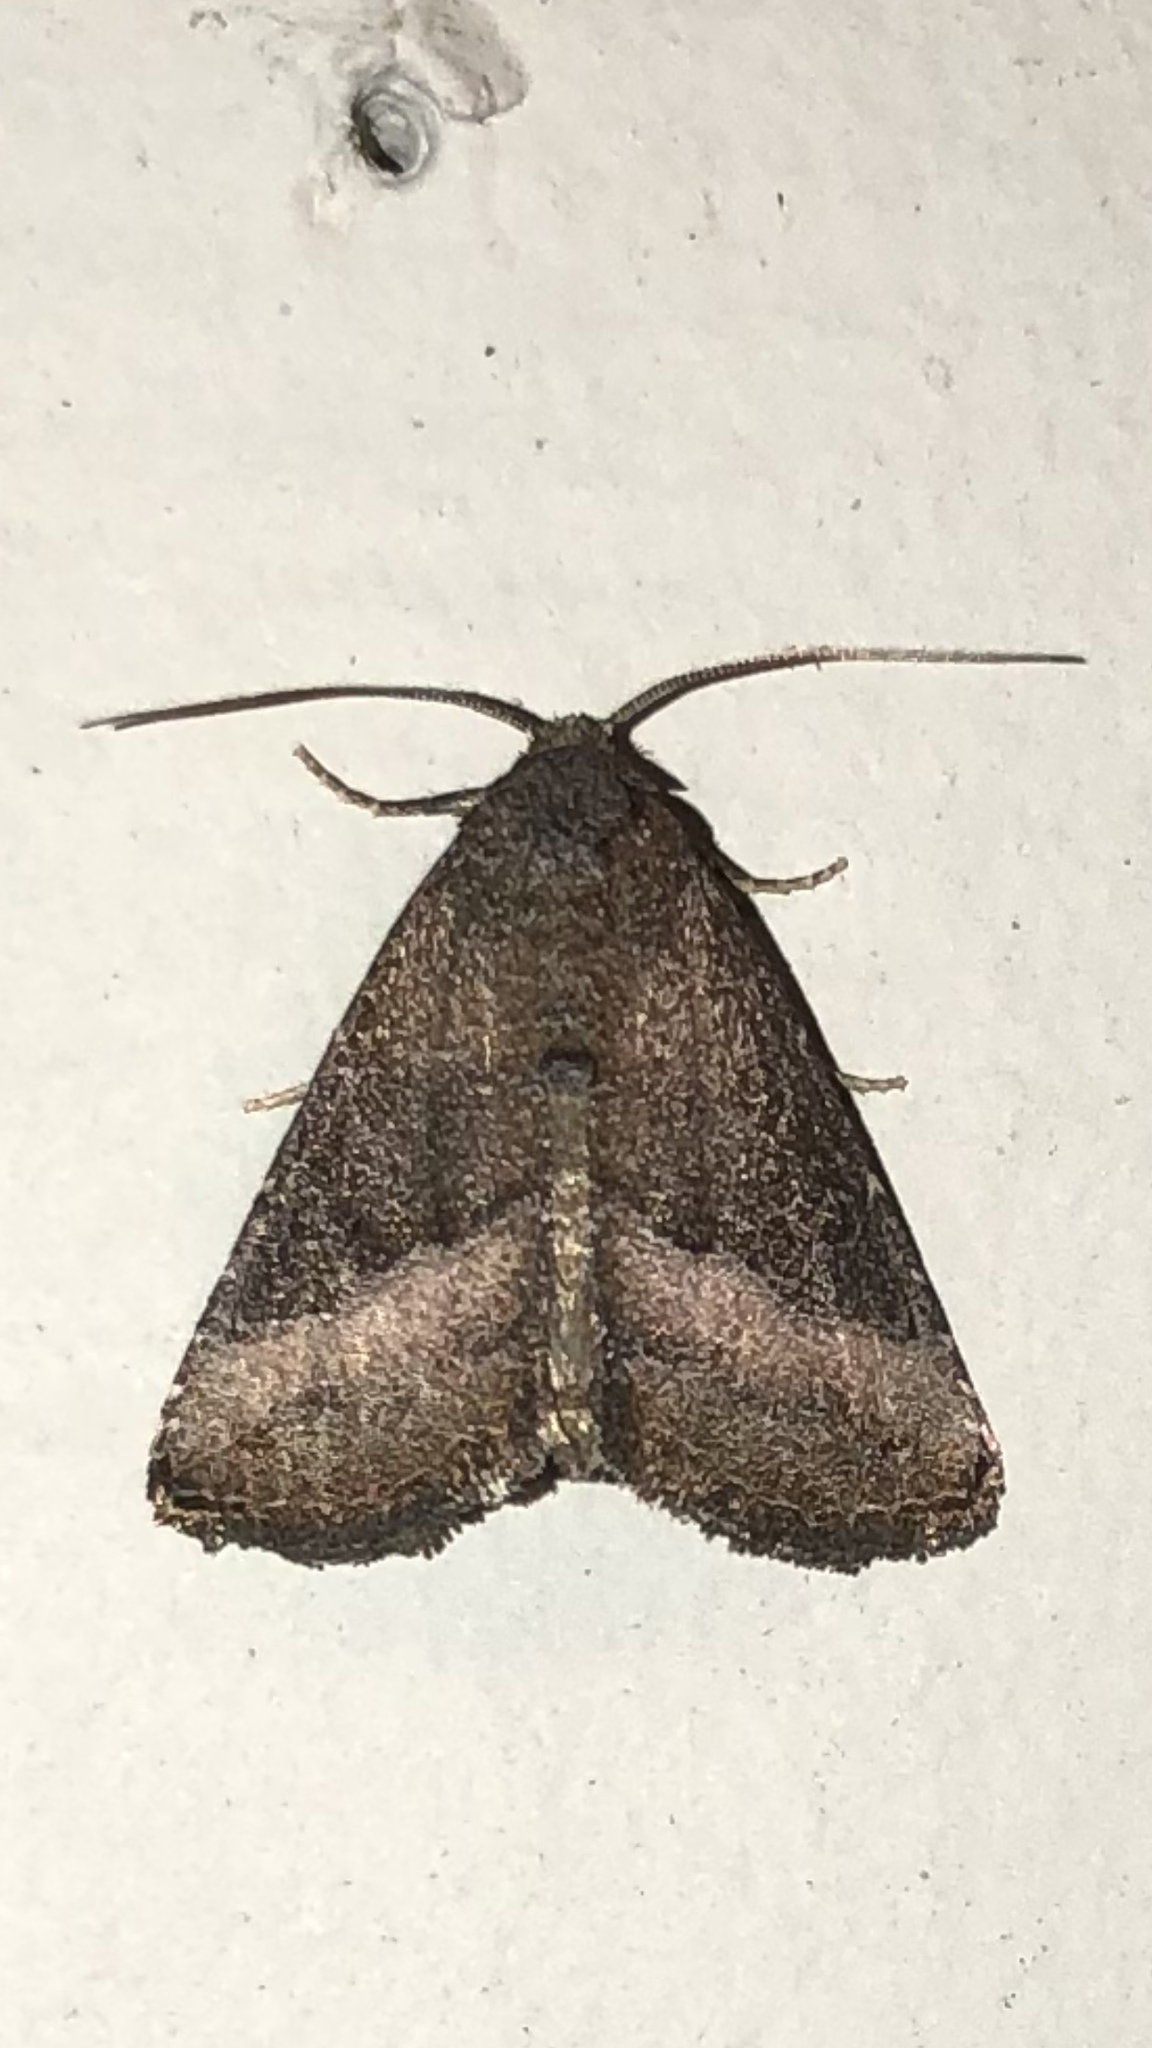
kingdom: Animalia
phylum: Arthropoda
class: Insecta
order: Lepidoptera
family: Noctuidae
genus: Ogdoconta
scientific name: Ogdoconta cinereola
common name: Common pinkband
